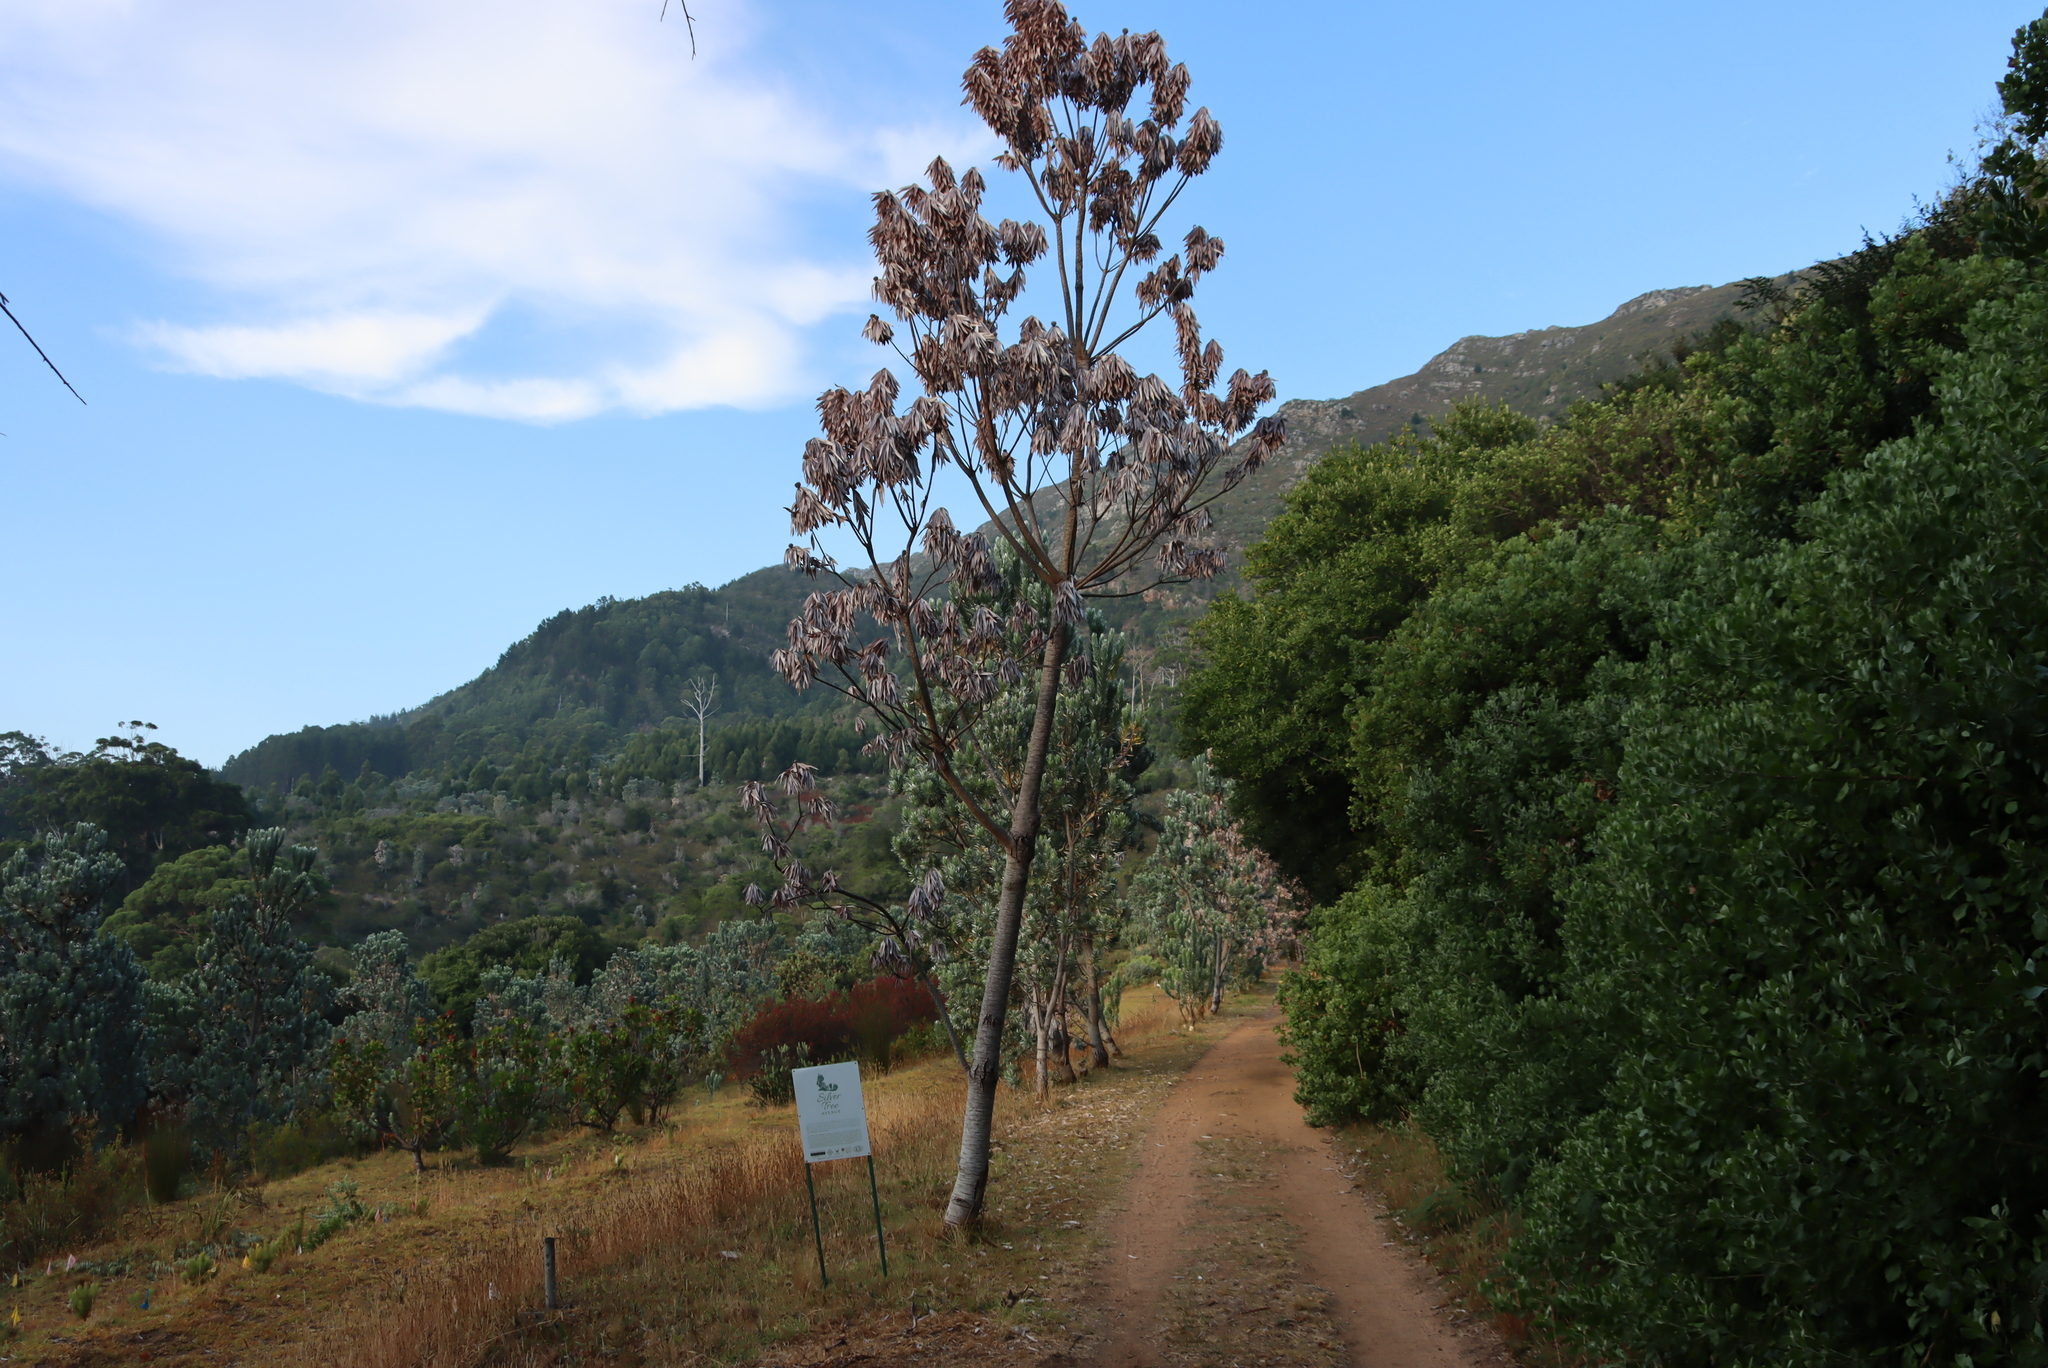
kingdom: Plantae
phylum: Tracheophyta
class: Magnoliopsida
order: Proteales
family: Proteaceae
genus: Leucadendron
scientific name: Leucadendron argenteum
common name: Cape silver tree
